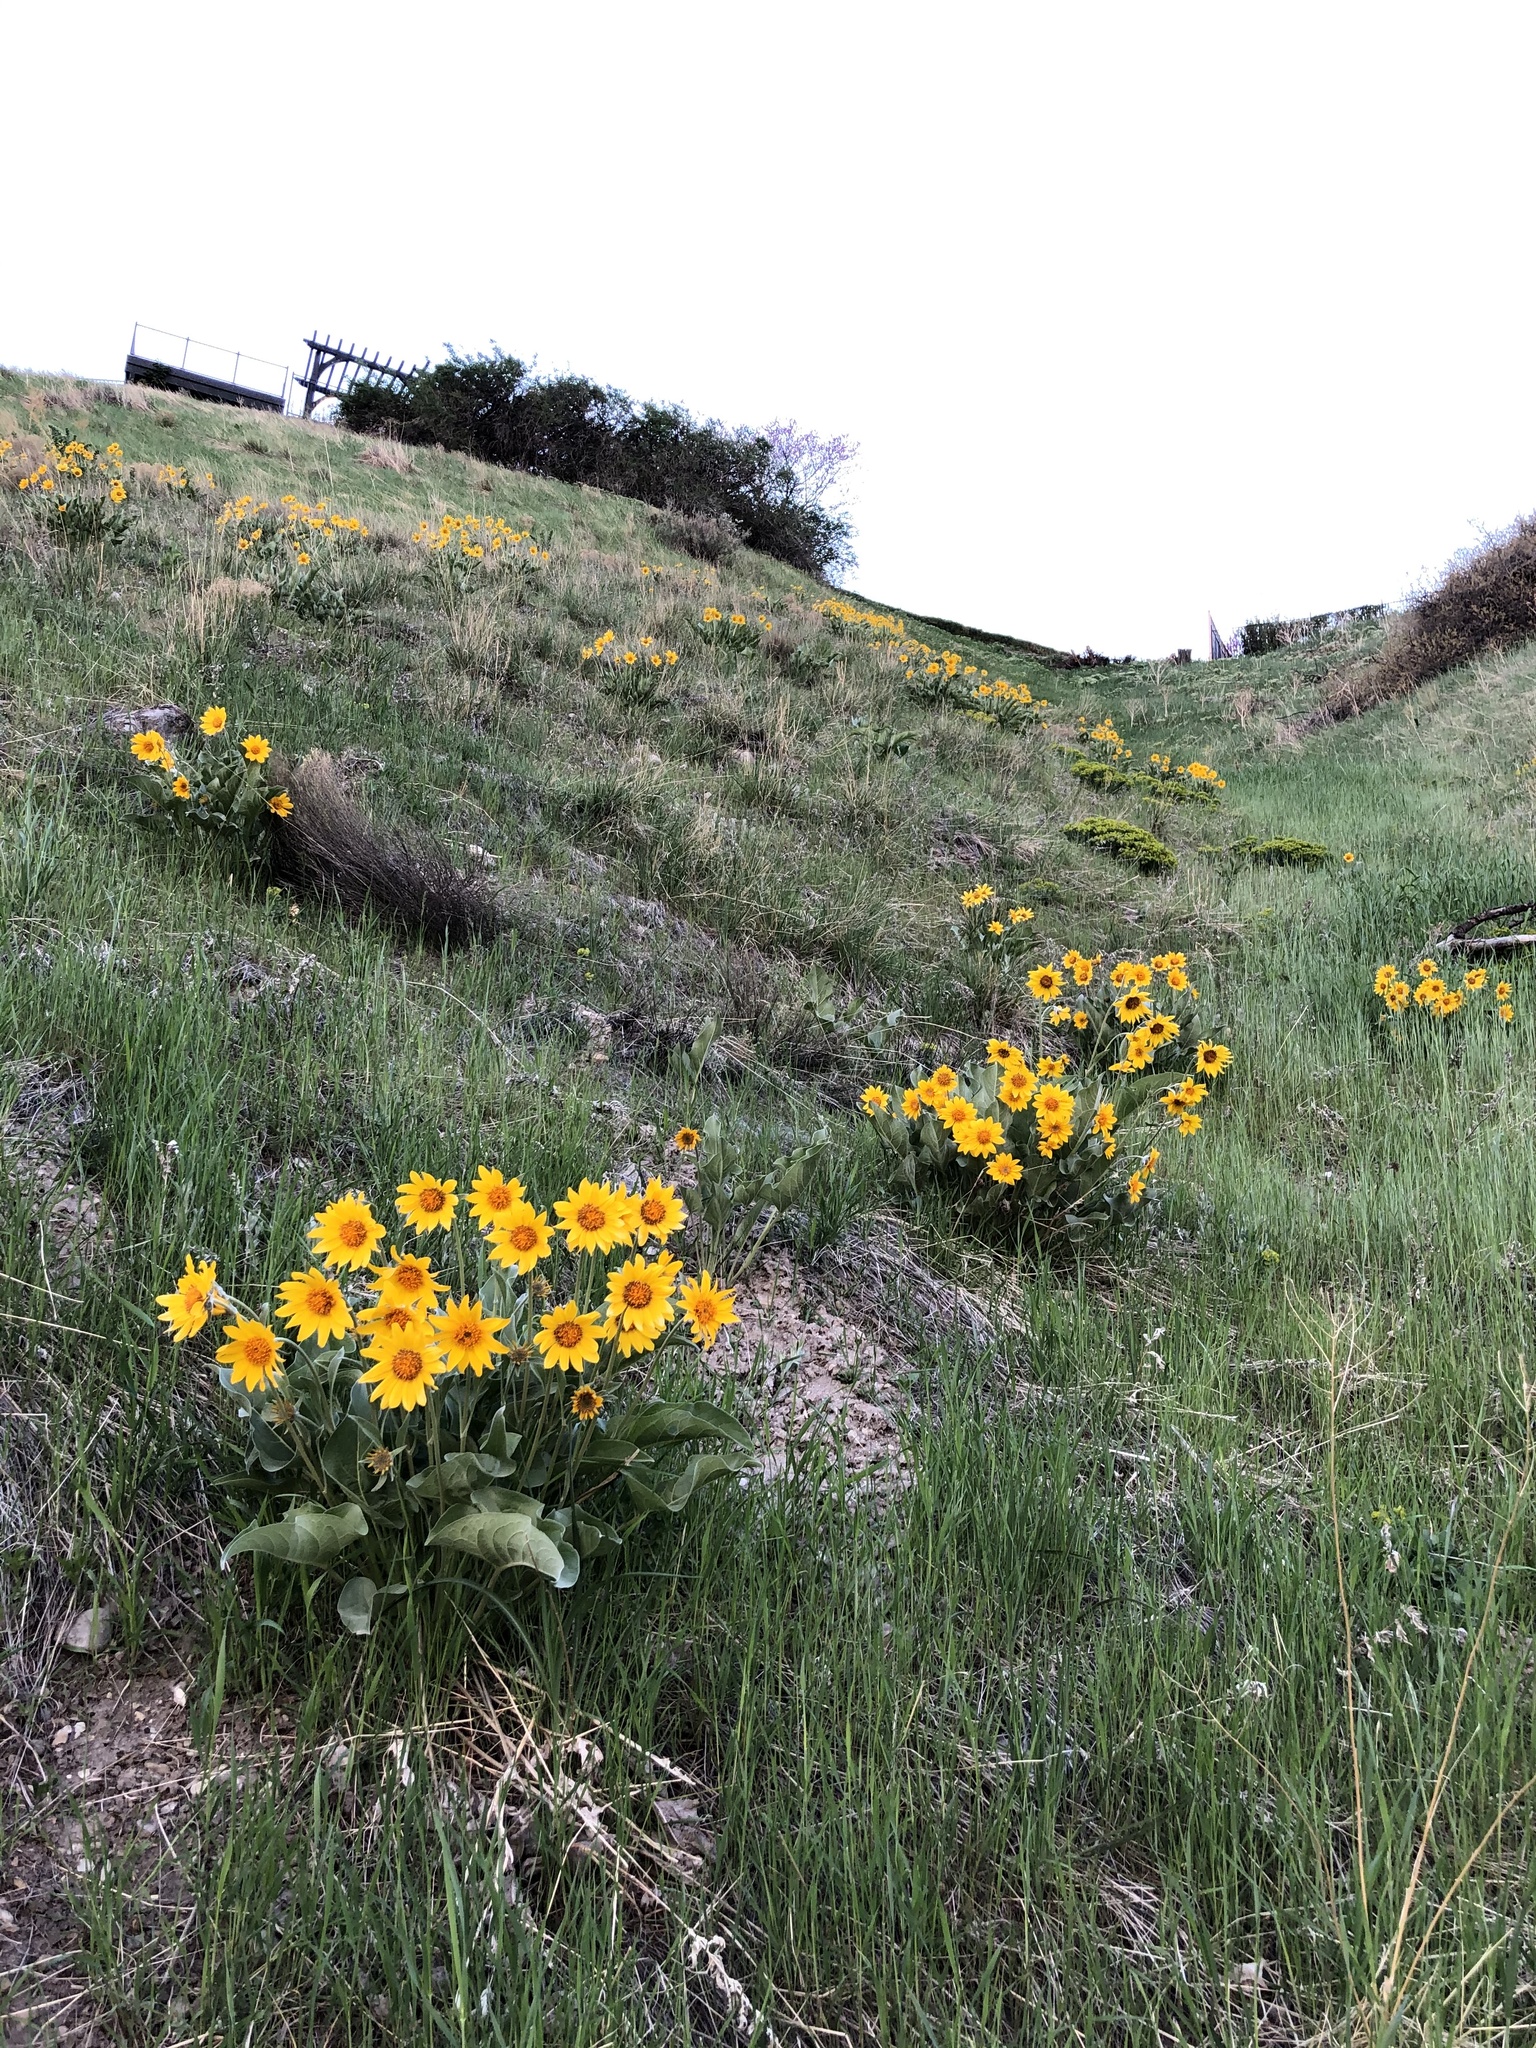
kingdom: Plantae
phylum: Tracheophyta
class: Magnoliopsida
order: Asterales
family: Asteraceae
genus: Wyethia
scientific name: Wyethia sagittata
